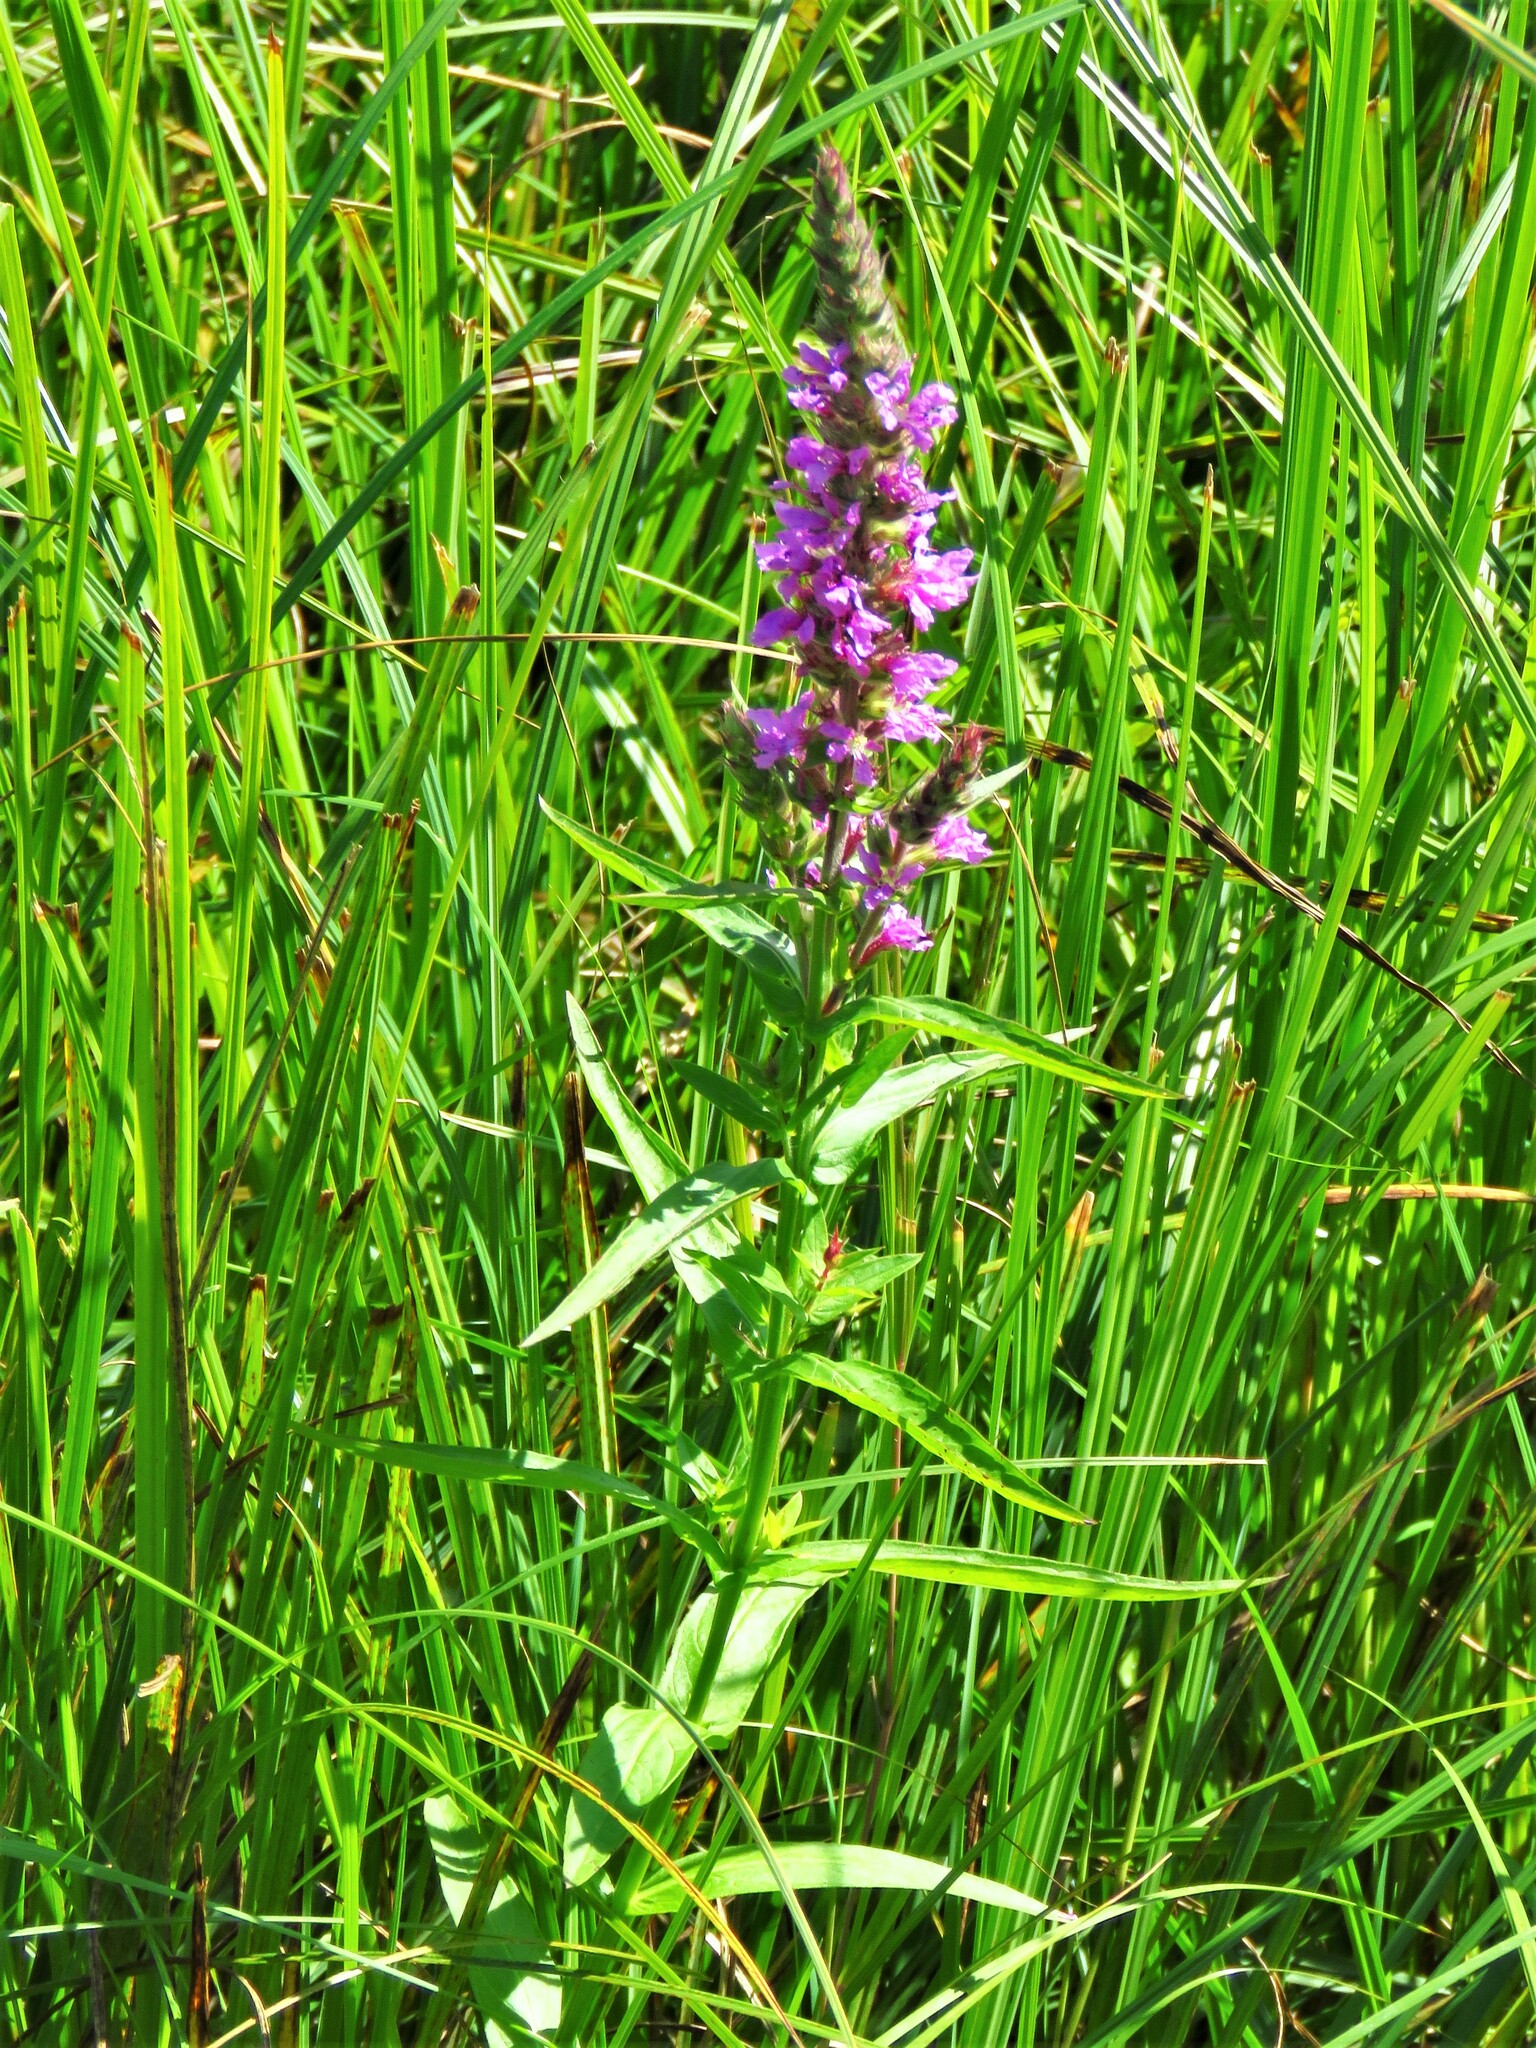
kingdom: Plantae
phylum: Tracheophyta
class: Magnoliopsida
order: Myrtales
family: Lythraceae
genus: Lythrum
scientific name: Lythrum salicaria
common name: Purple loosestrife
